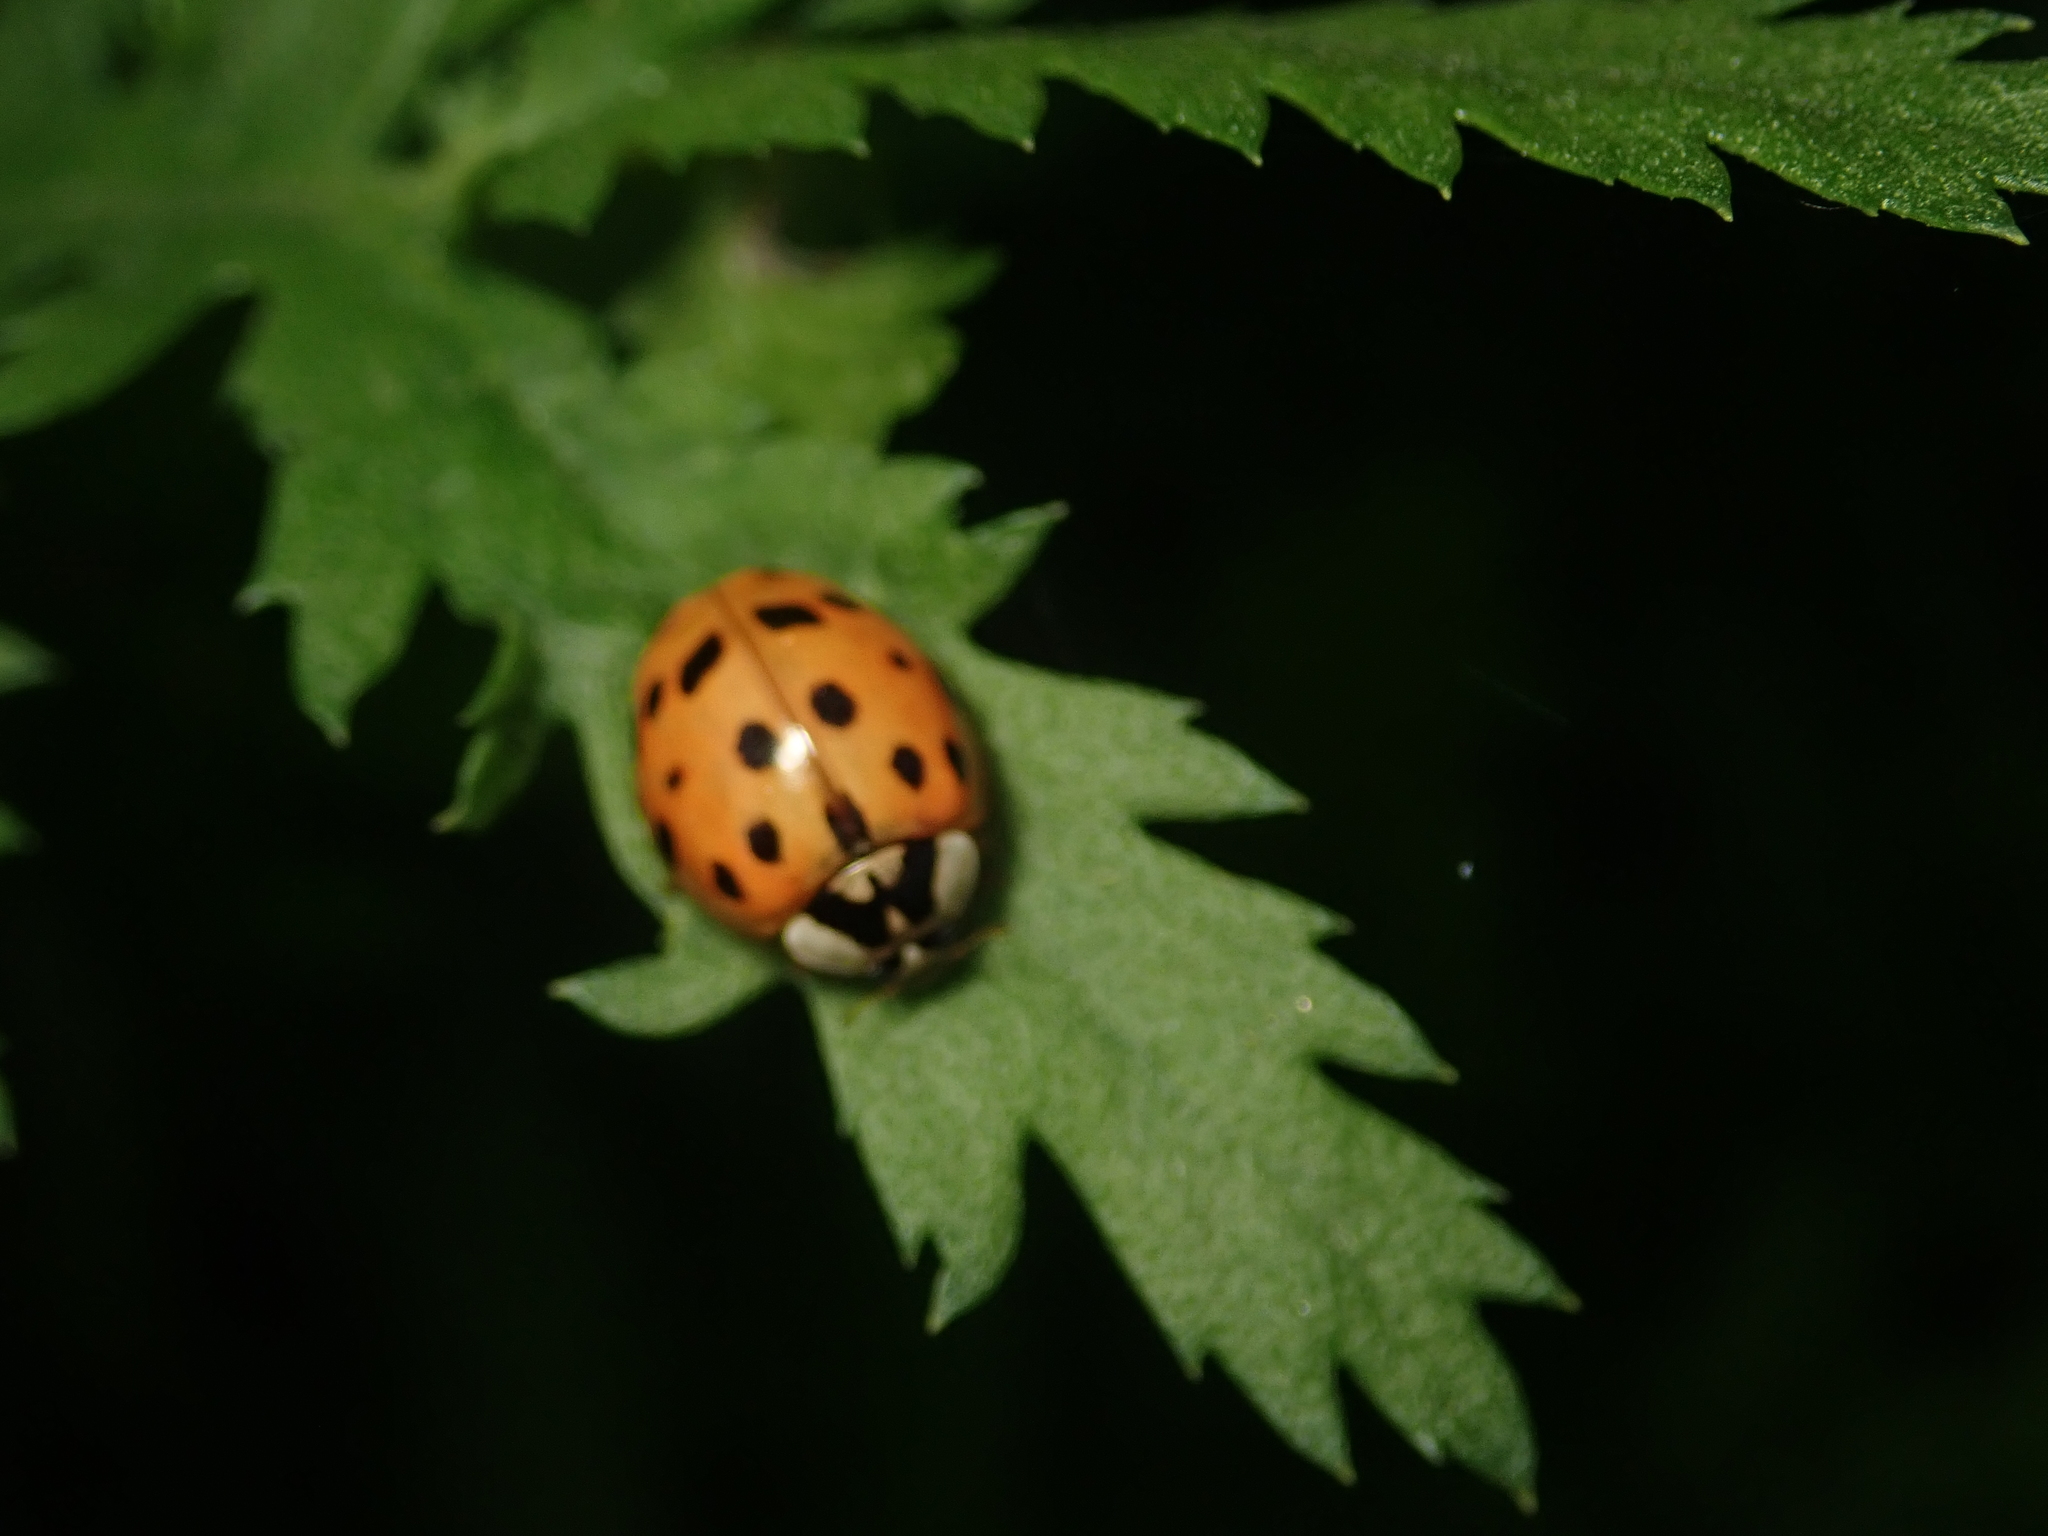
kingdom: Animalia
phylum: Arthropoda
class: Insecta
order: Coleoptera
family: Coccinellidae
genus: Harmonia
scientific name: Harmonia axyridis
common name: Harlequin ladybird
